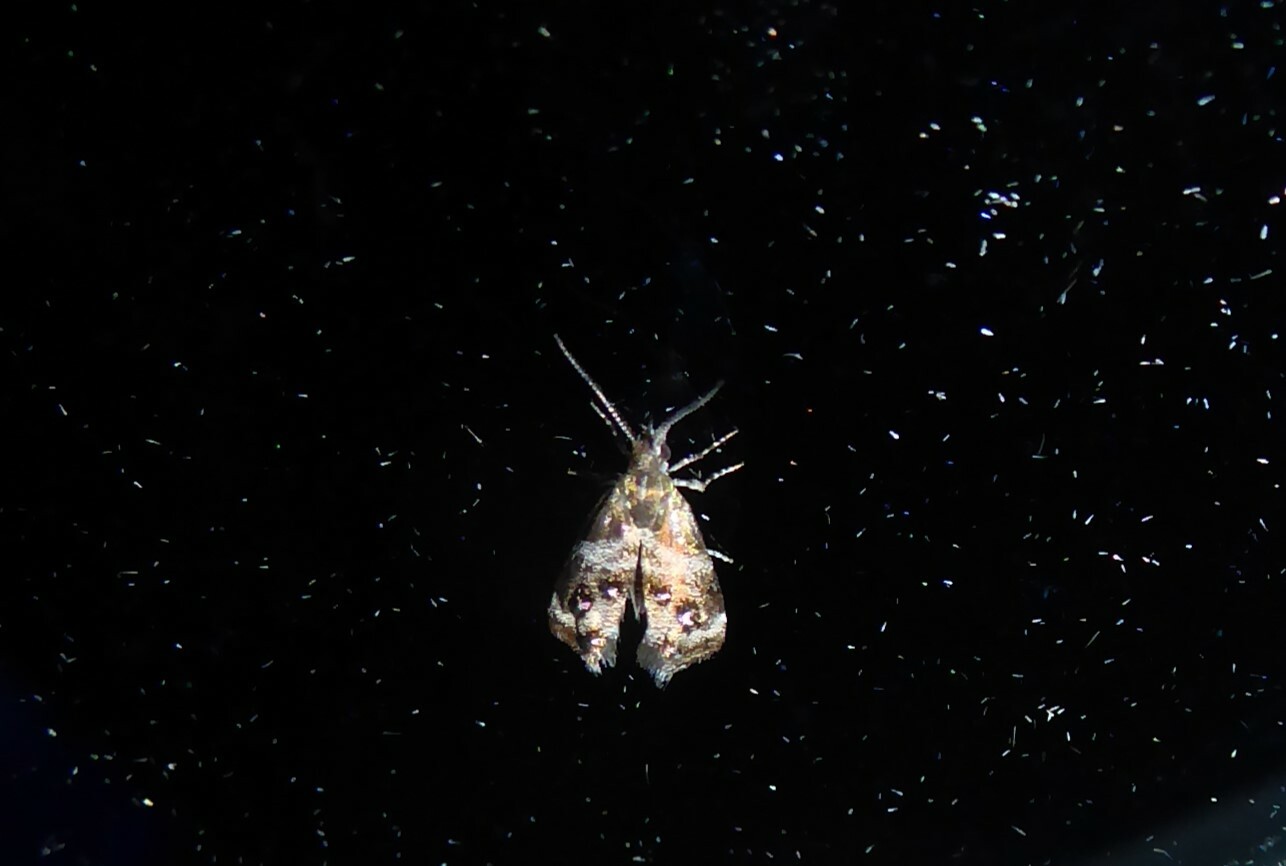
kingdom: Animalia
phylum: Arthropoda
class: Insecta
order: Lepidoptera
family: Choreutidae
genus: Tebenna
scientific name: Tebenna micalis
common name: Vagrant twitcher
